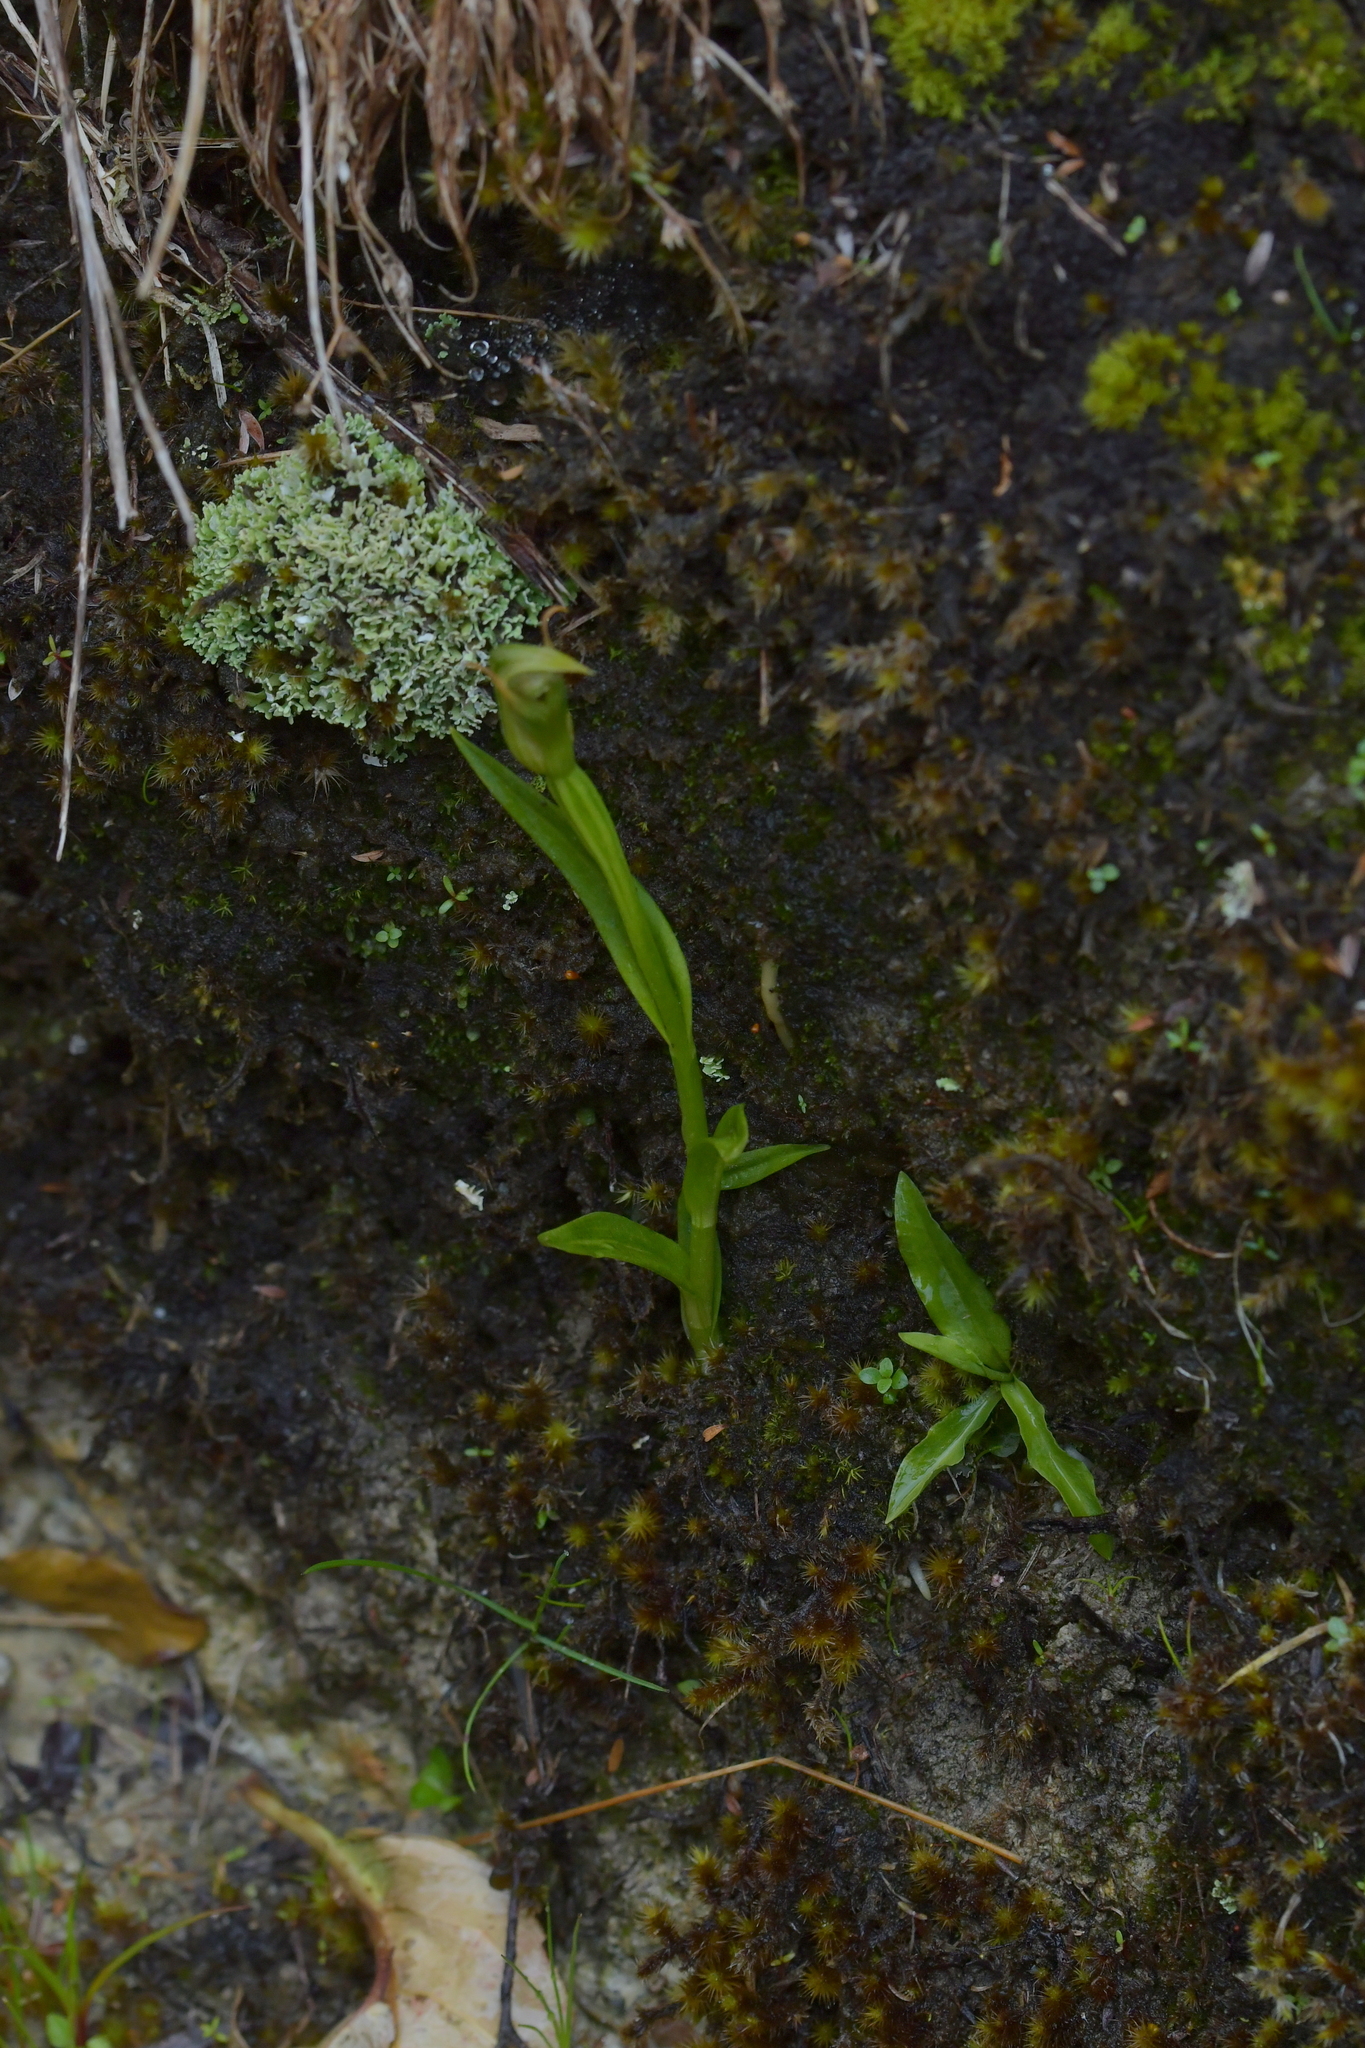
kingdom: Plantae
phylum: Tracheophyta
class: Liliopsida
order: Asparagales
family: Orchidaceae
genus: Pterostylis
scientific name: Pterostylis montana
